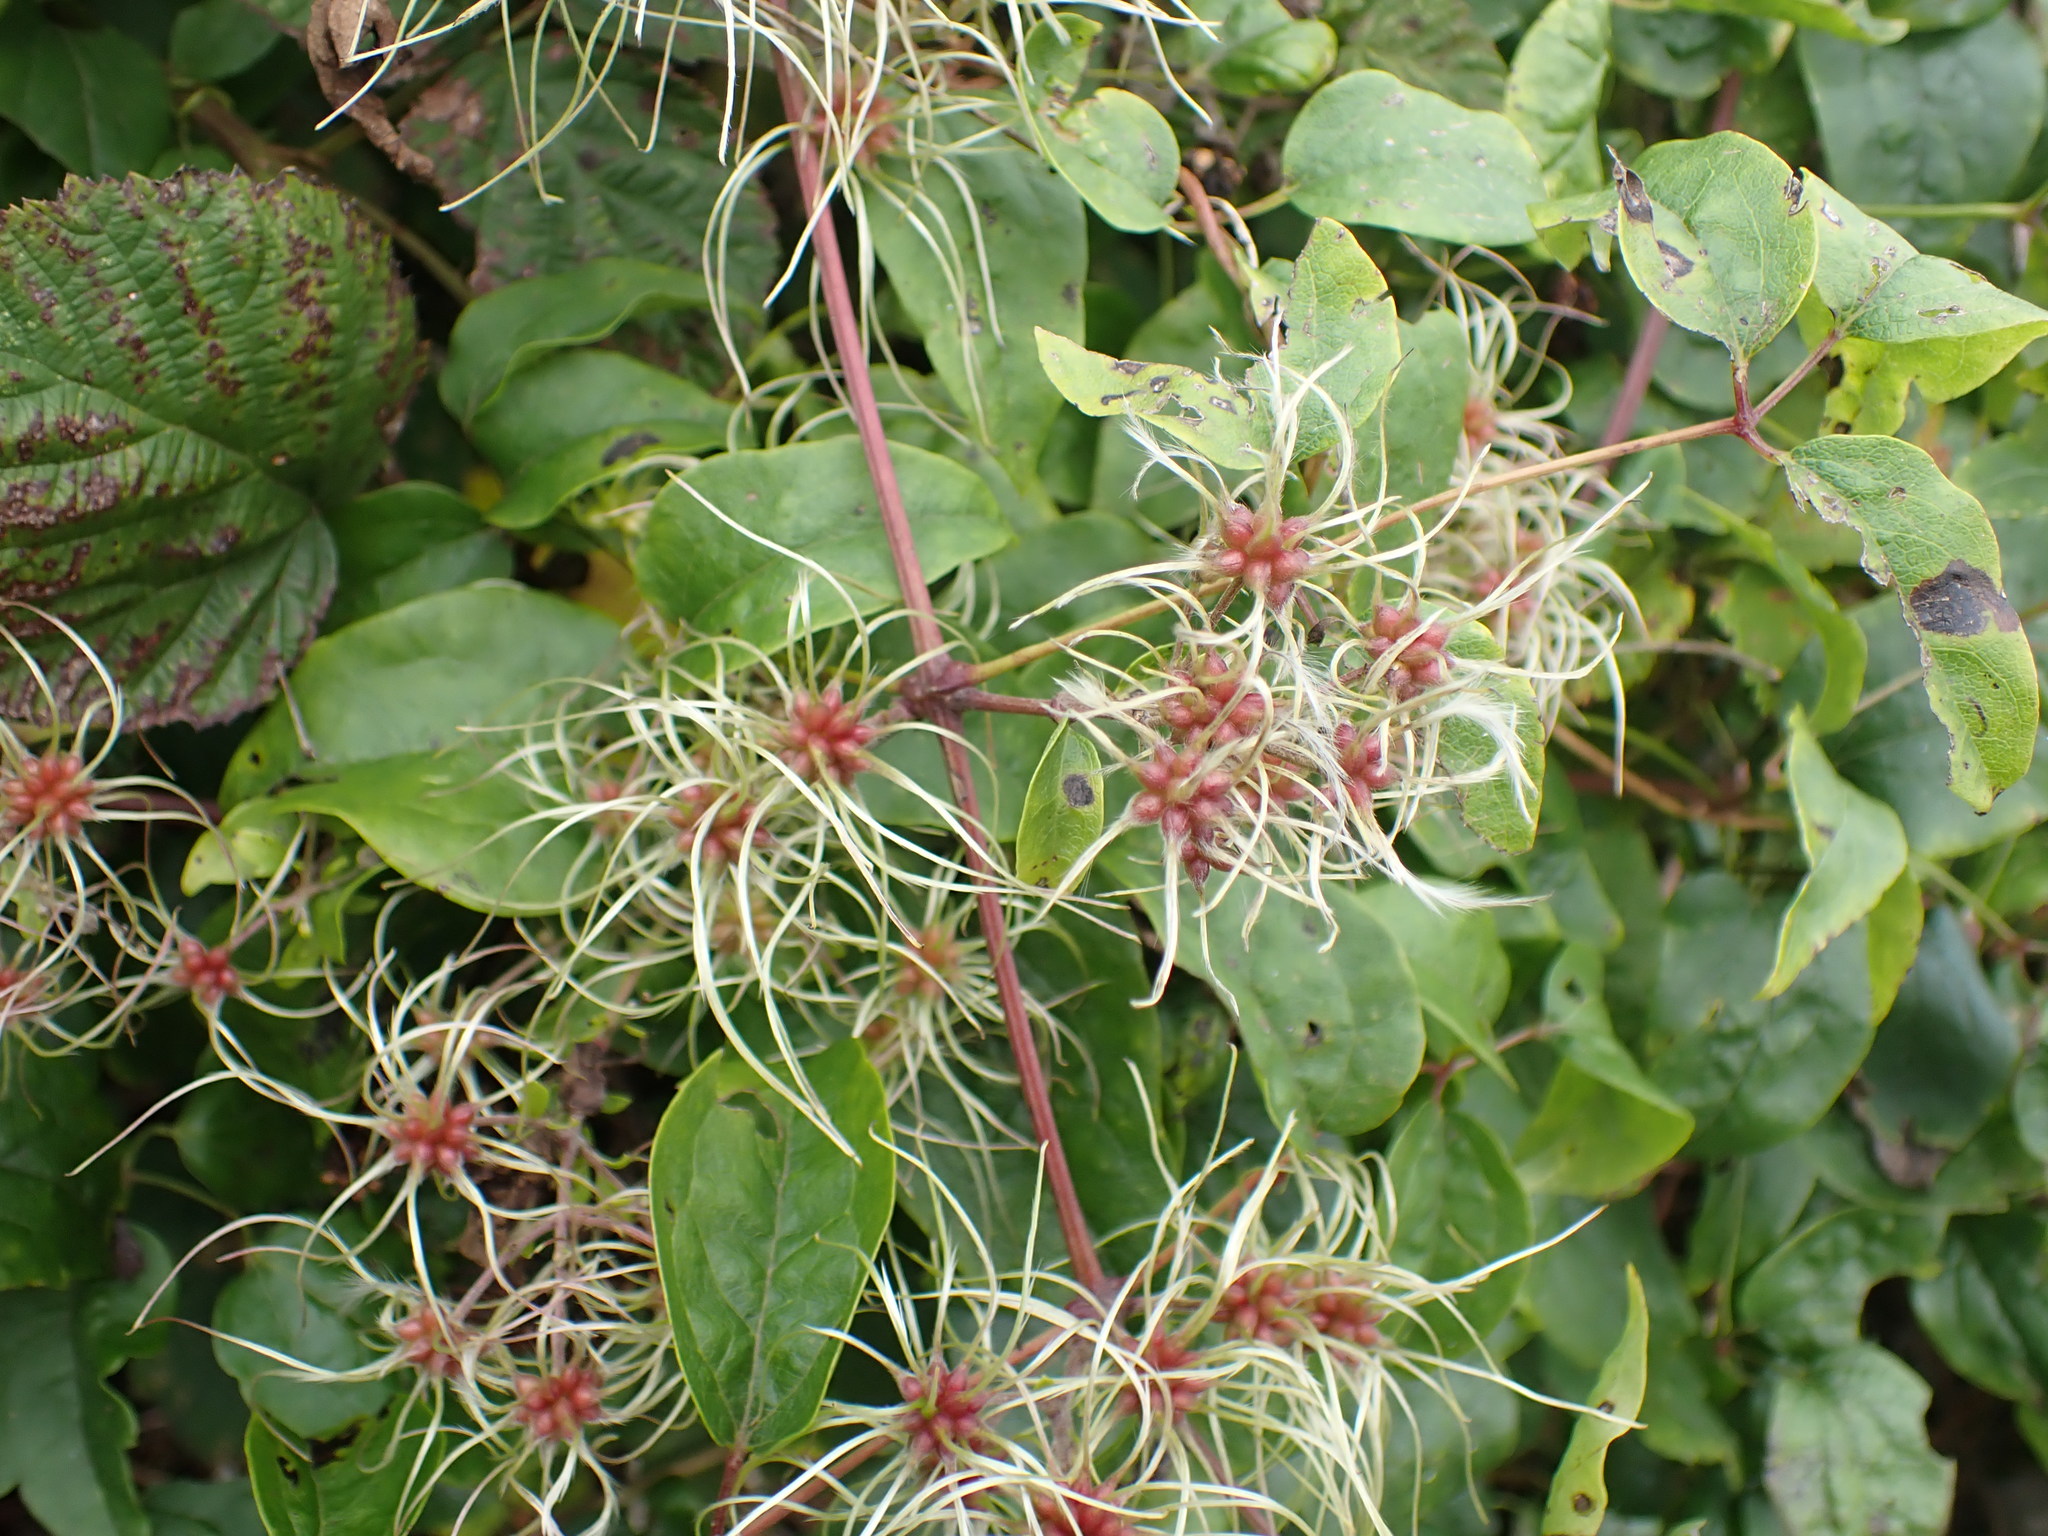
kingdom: Plantae
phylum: Tracheophyta
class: Magnoliopsida
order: Ranunculales
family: Ranunculaceae
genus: Clematis
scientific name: Clematis vitalba
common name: Evergreen clematis
